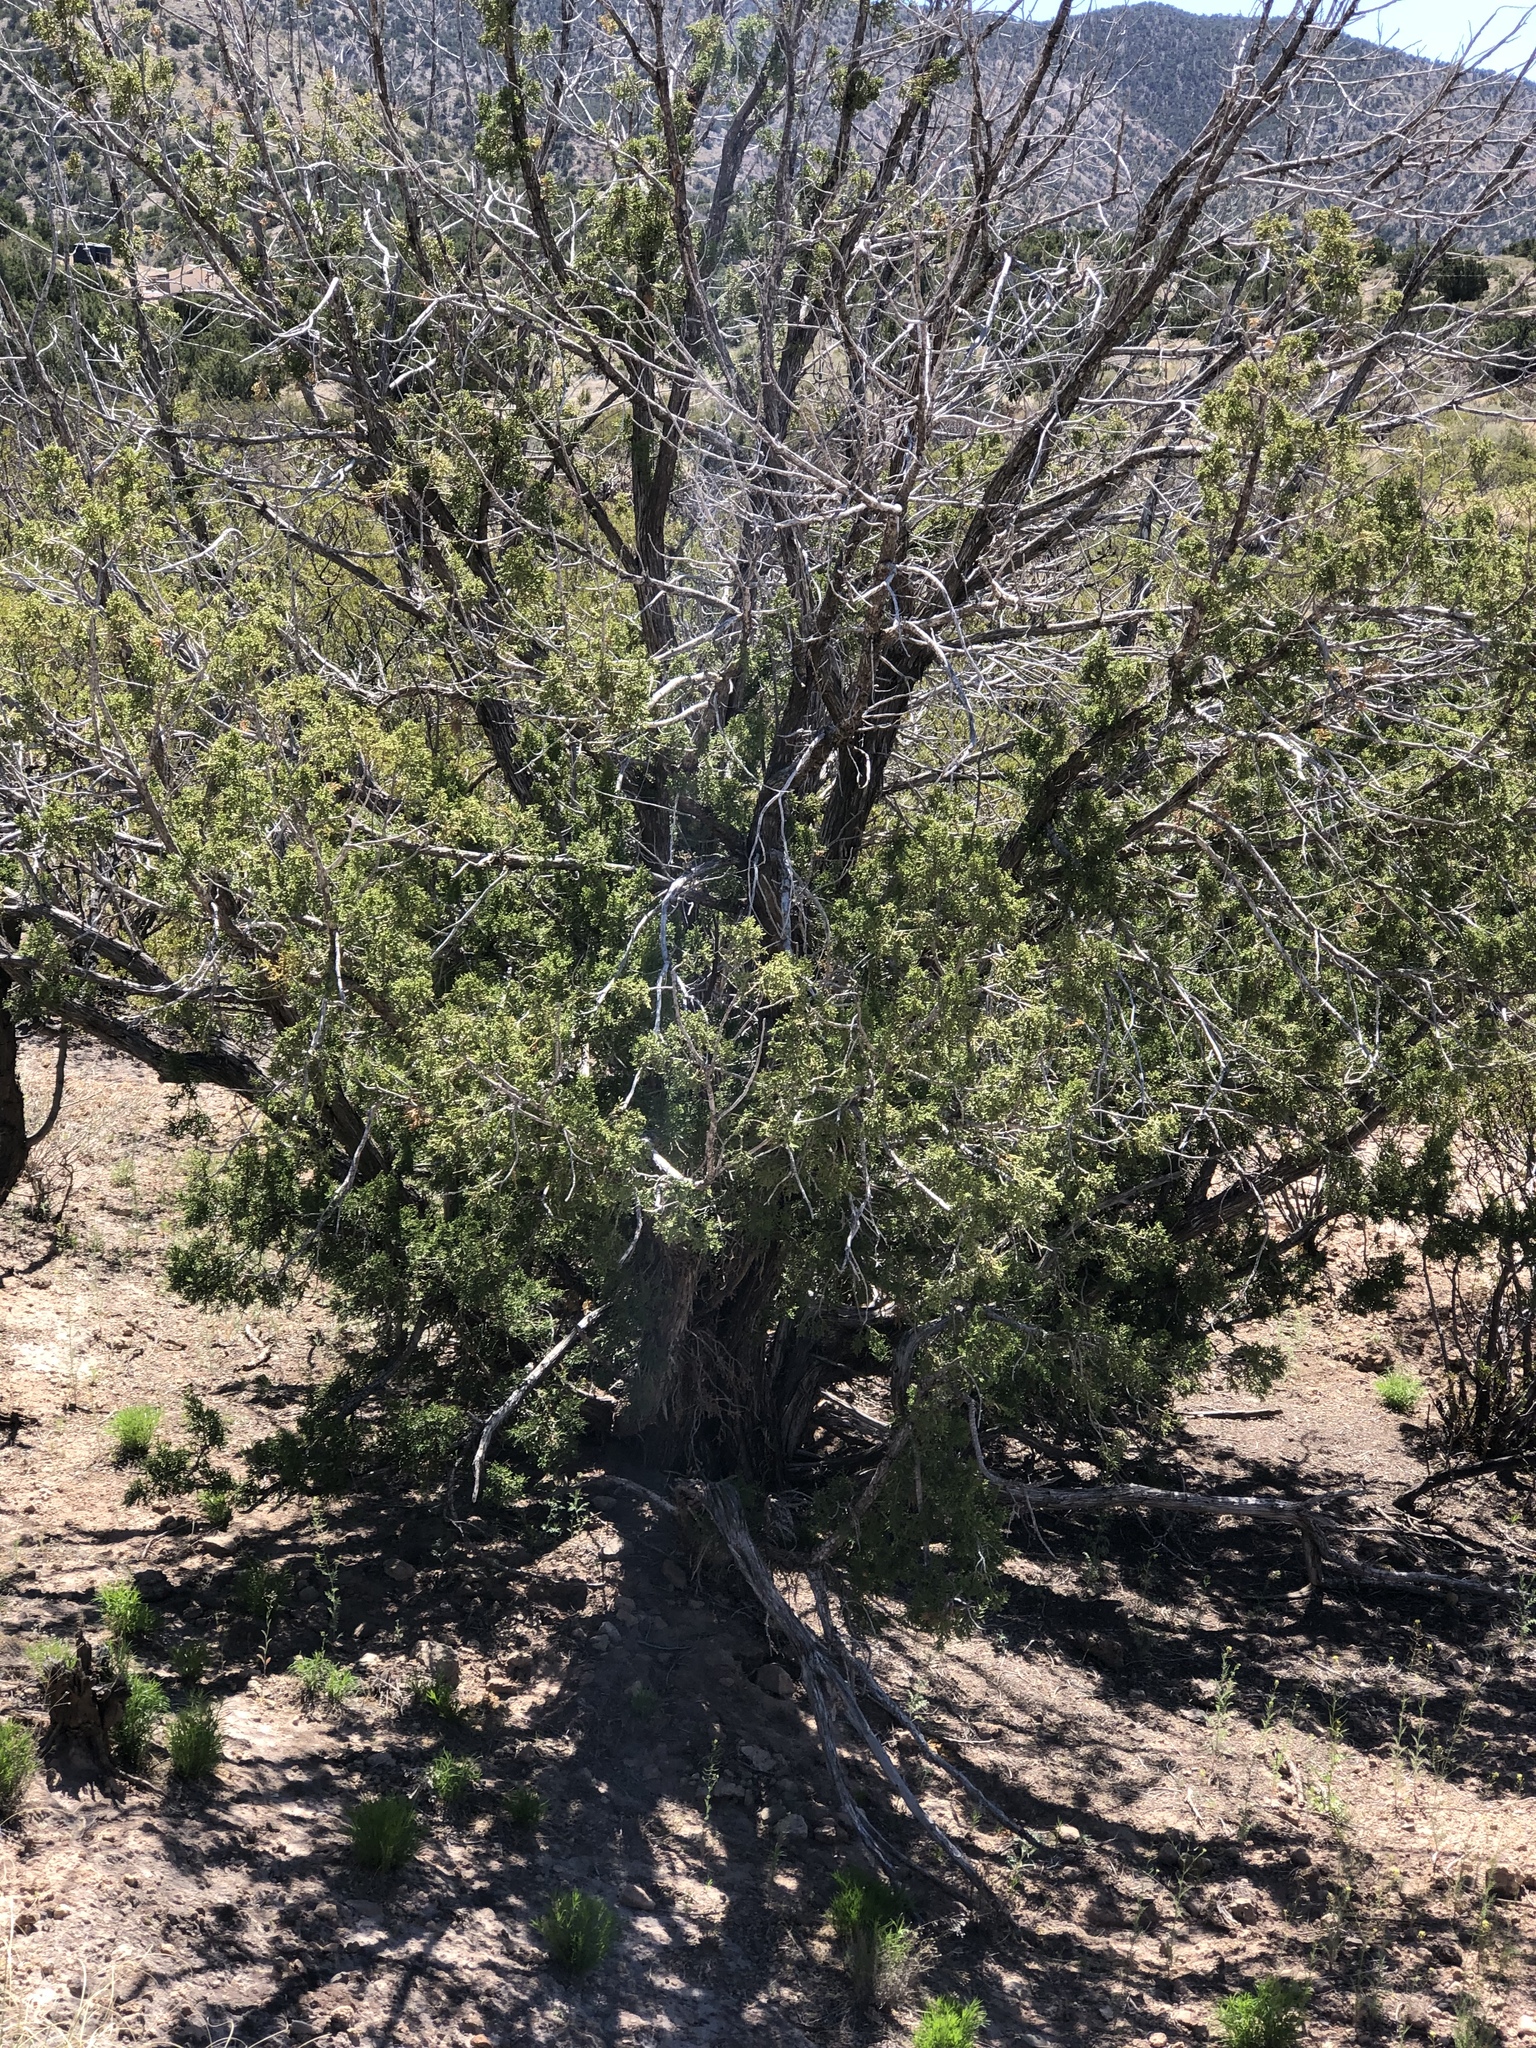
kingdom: Plantae
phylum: Tracheophyta
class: Pinopsida
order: Pinales
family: Cupressaceae
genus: Juniperus
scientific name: Juniperus monosperma
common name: One-seed juniper
